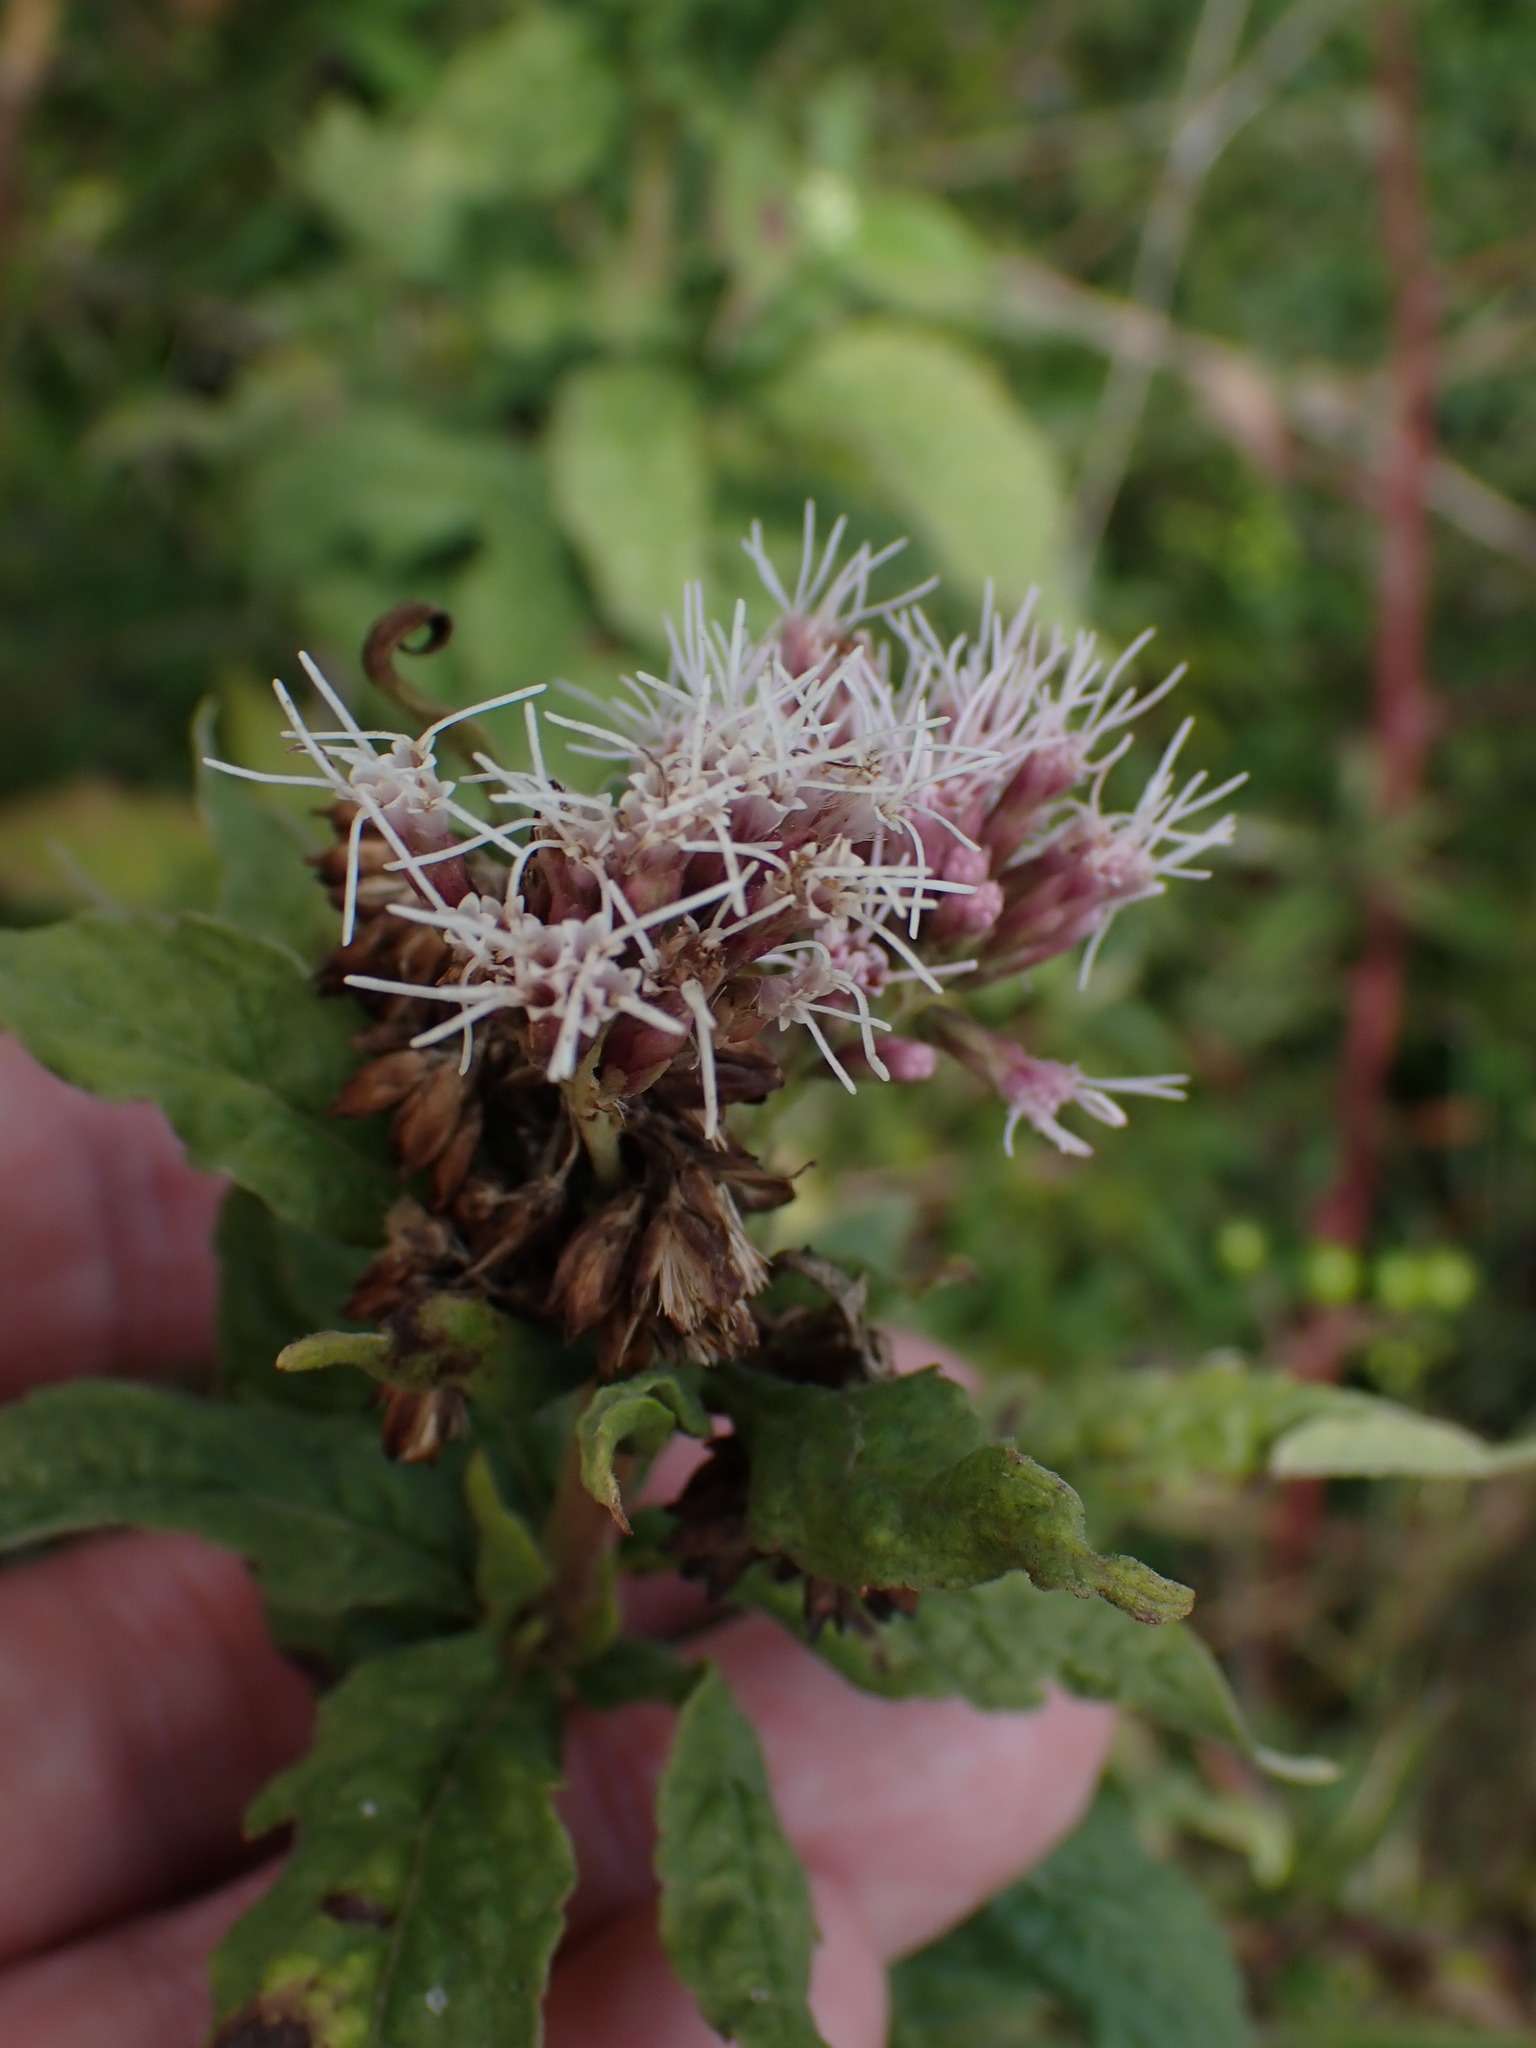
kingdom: Plantae
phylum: Tracheophyta
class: Magnoliopsida
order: Asterales
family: Asteraceae
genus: Eupatorium
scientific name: Eupatorium cannabinum
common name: Hemp-agrimony
